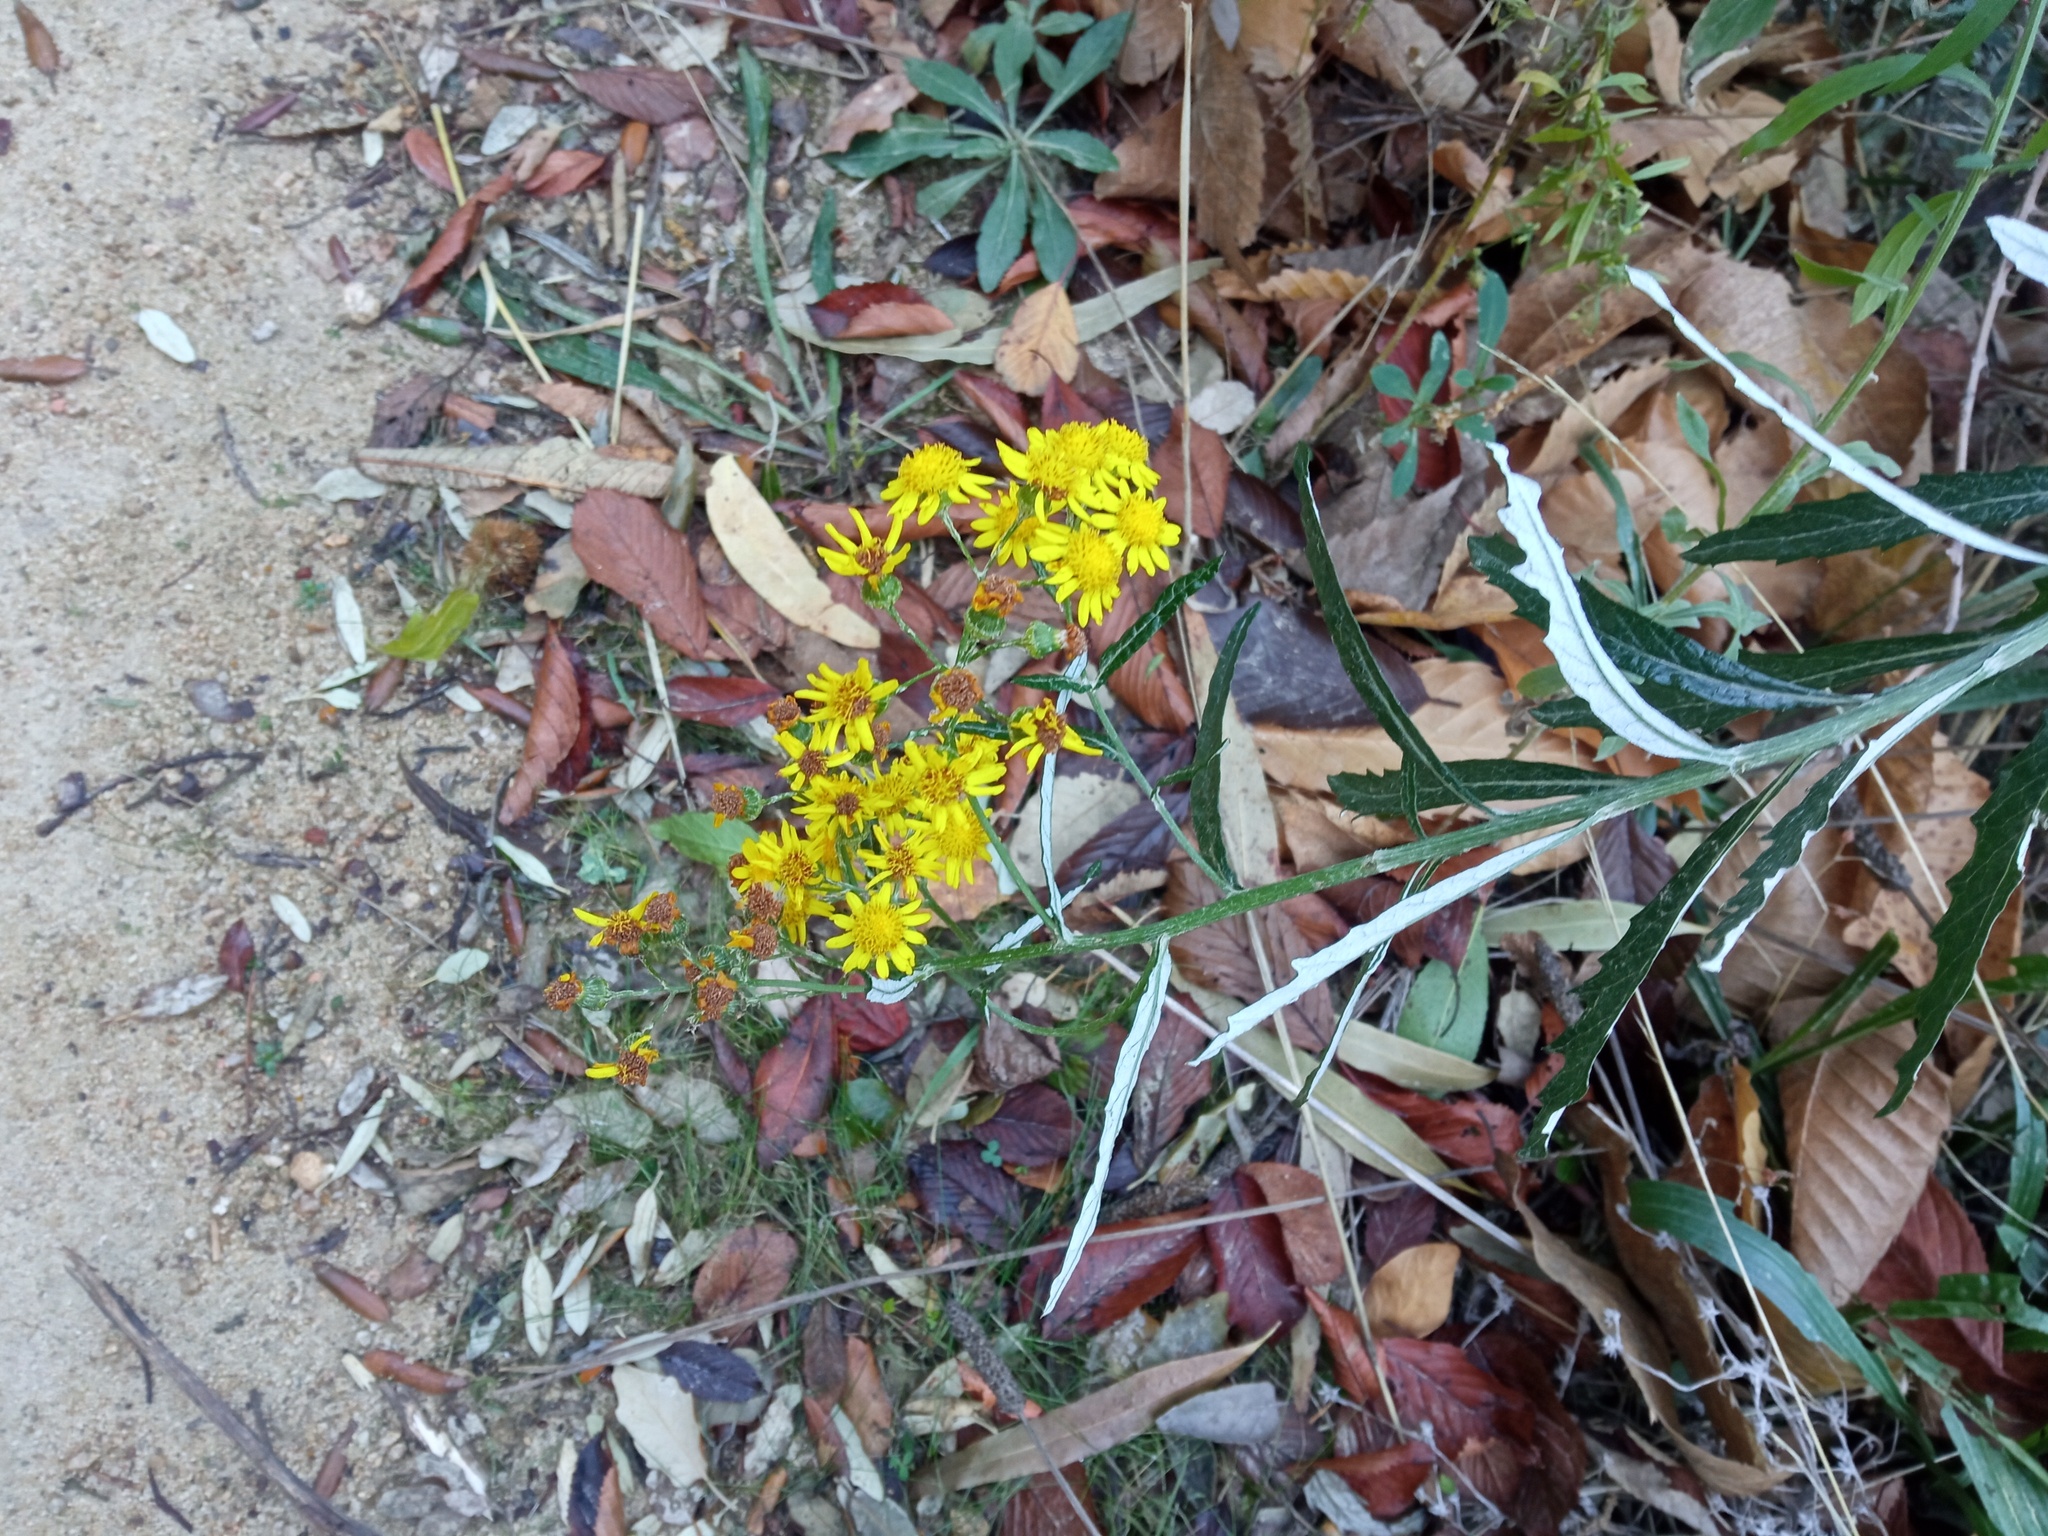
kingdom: Plantae
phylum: Tracheophyta
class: Magnoliopsida
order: Asterales
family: Asteraceae
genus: Senecio
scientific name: Senecio pterophorus
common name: Shoddy ragwort
